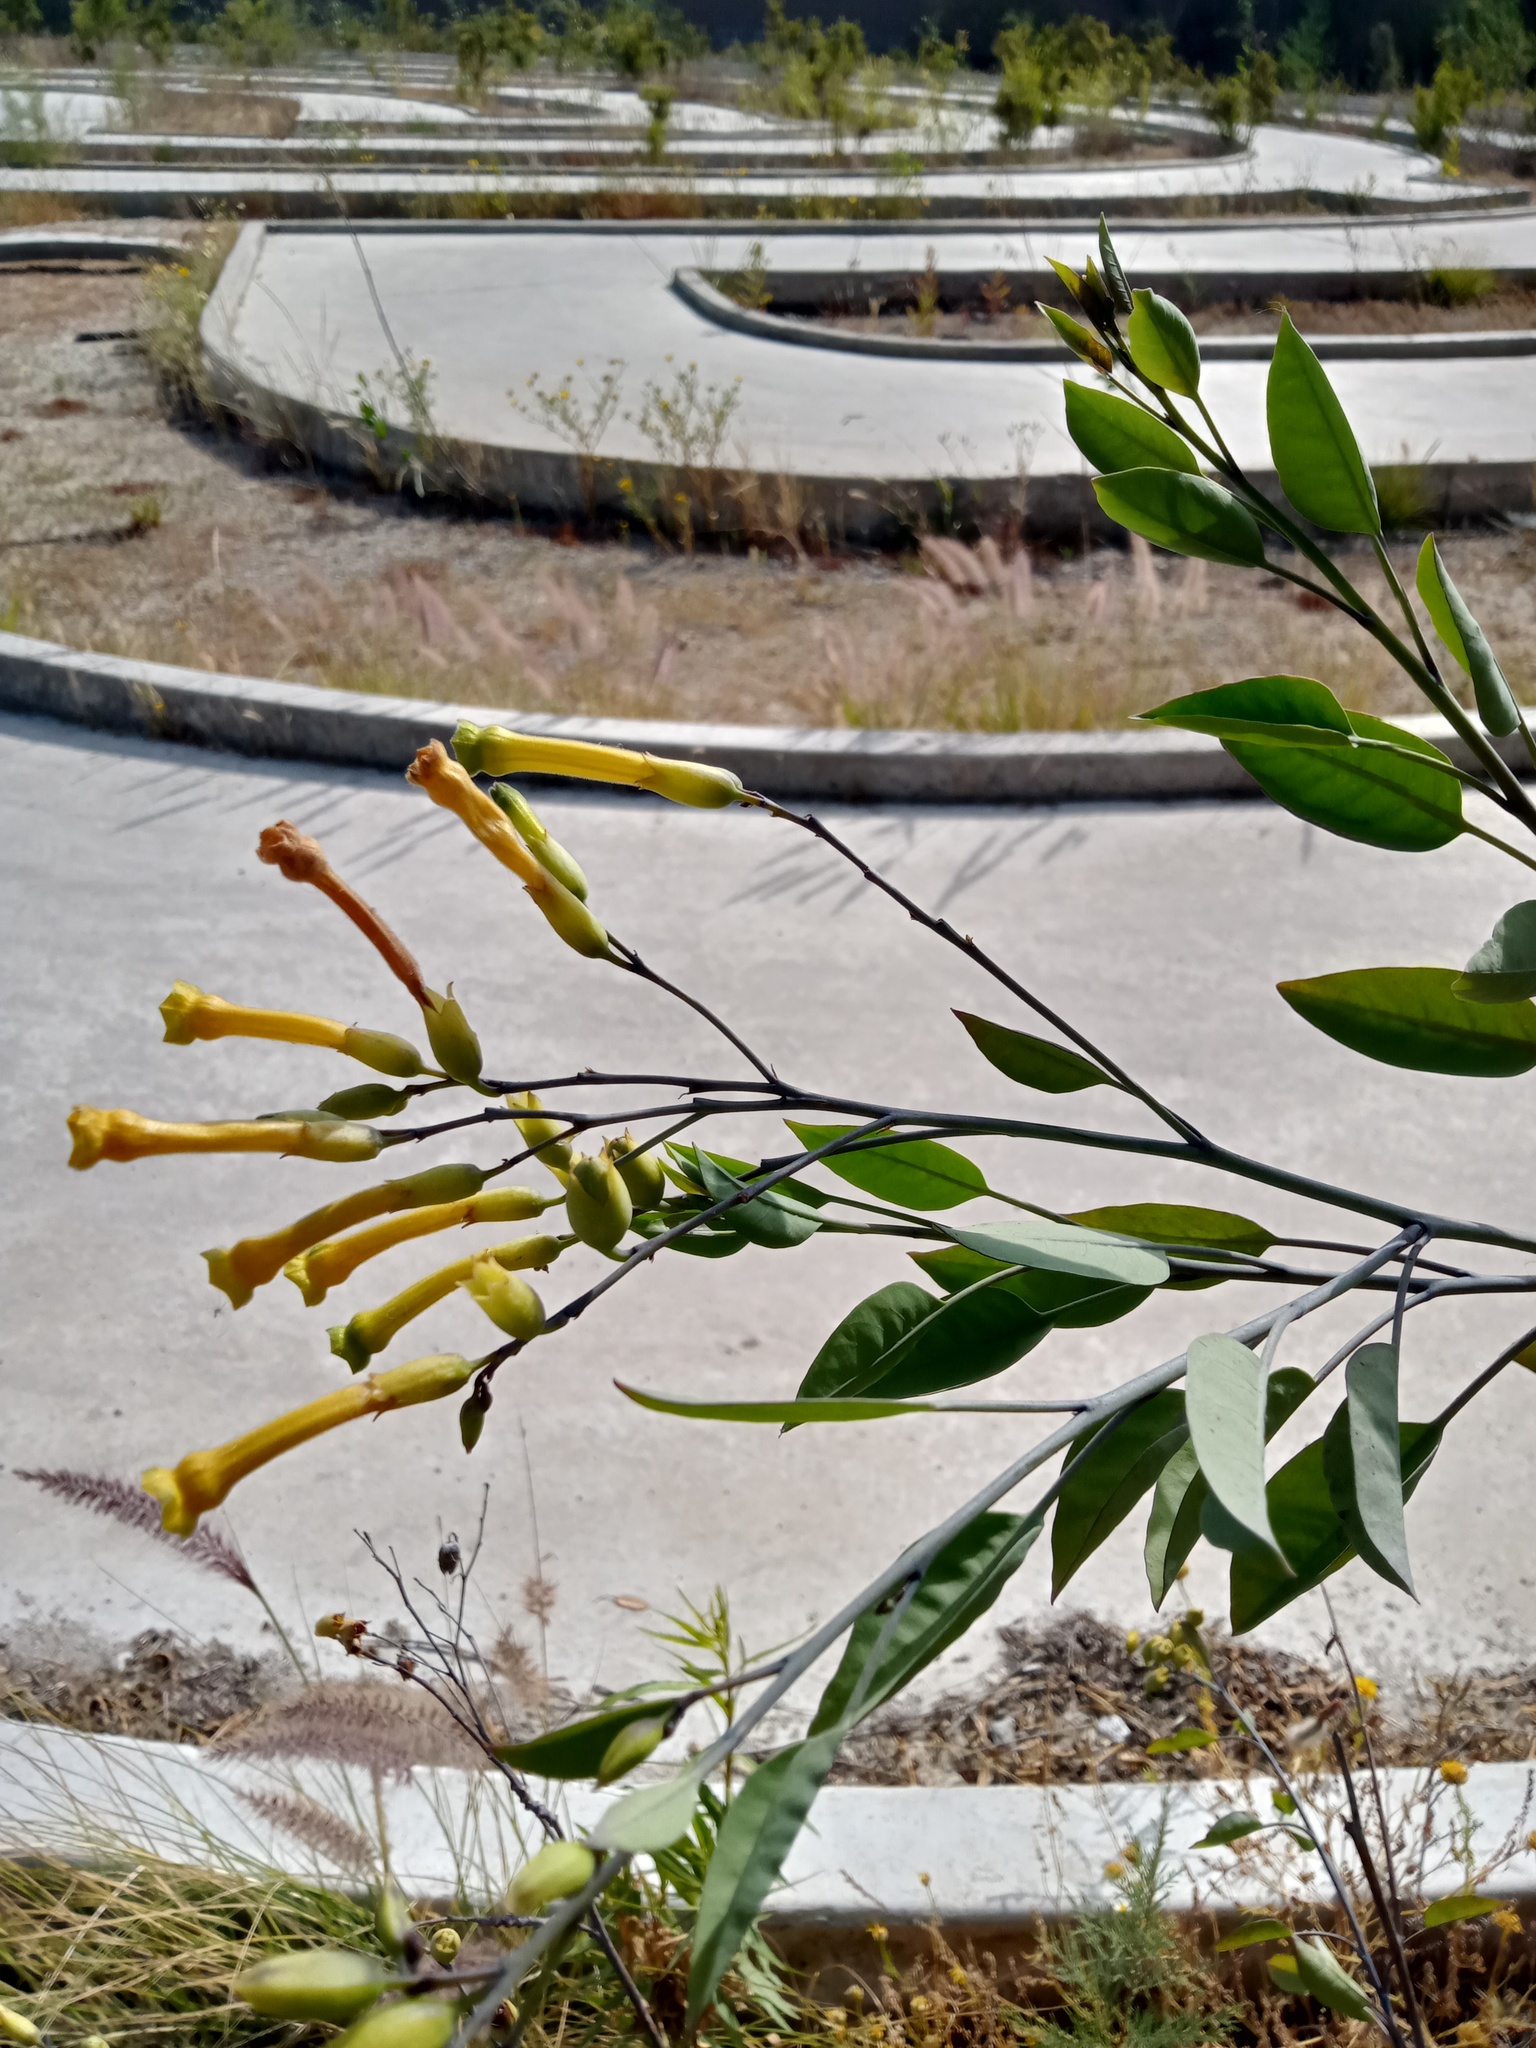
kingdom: Plantae
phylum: Tracheophyta
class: Magnoliopsida
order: Solanales
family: Solanaceae
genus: Nicotiana
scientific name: Nicotiana glauca
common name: Tree tobacco
